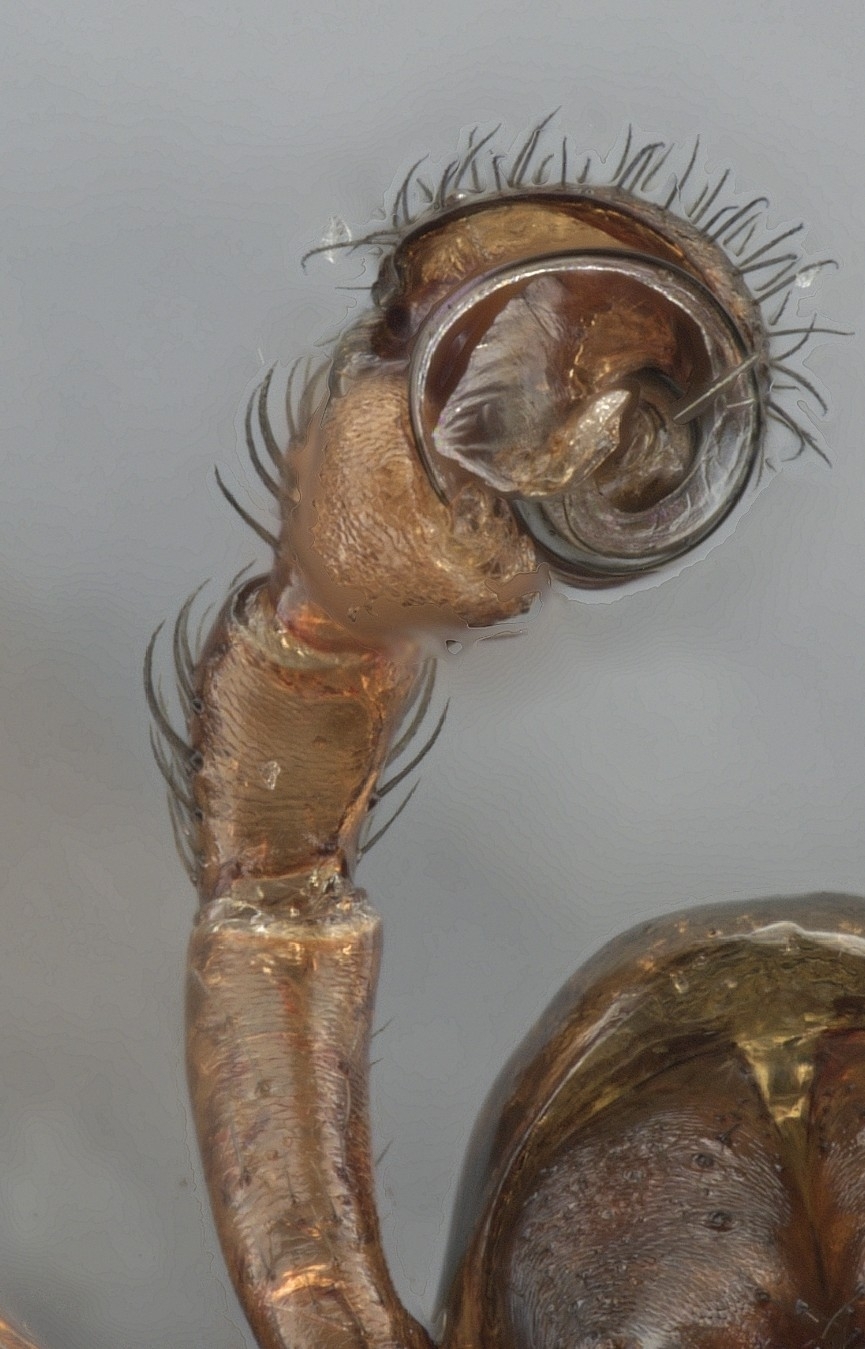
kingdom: Animalia
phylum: Arthropoda
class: Arachnida
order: Araneae
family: Linyphiidae
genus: Scotinotylus
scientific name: Scotinotylus formicarius
